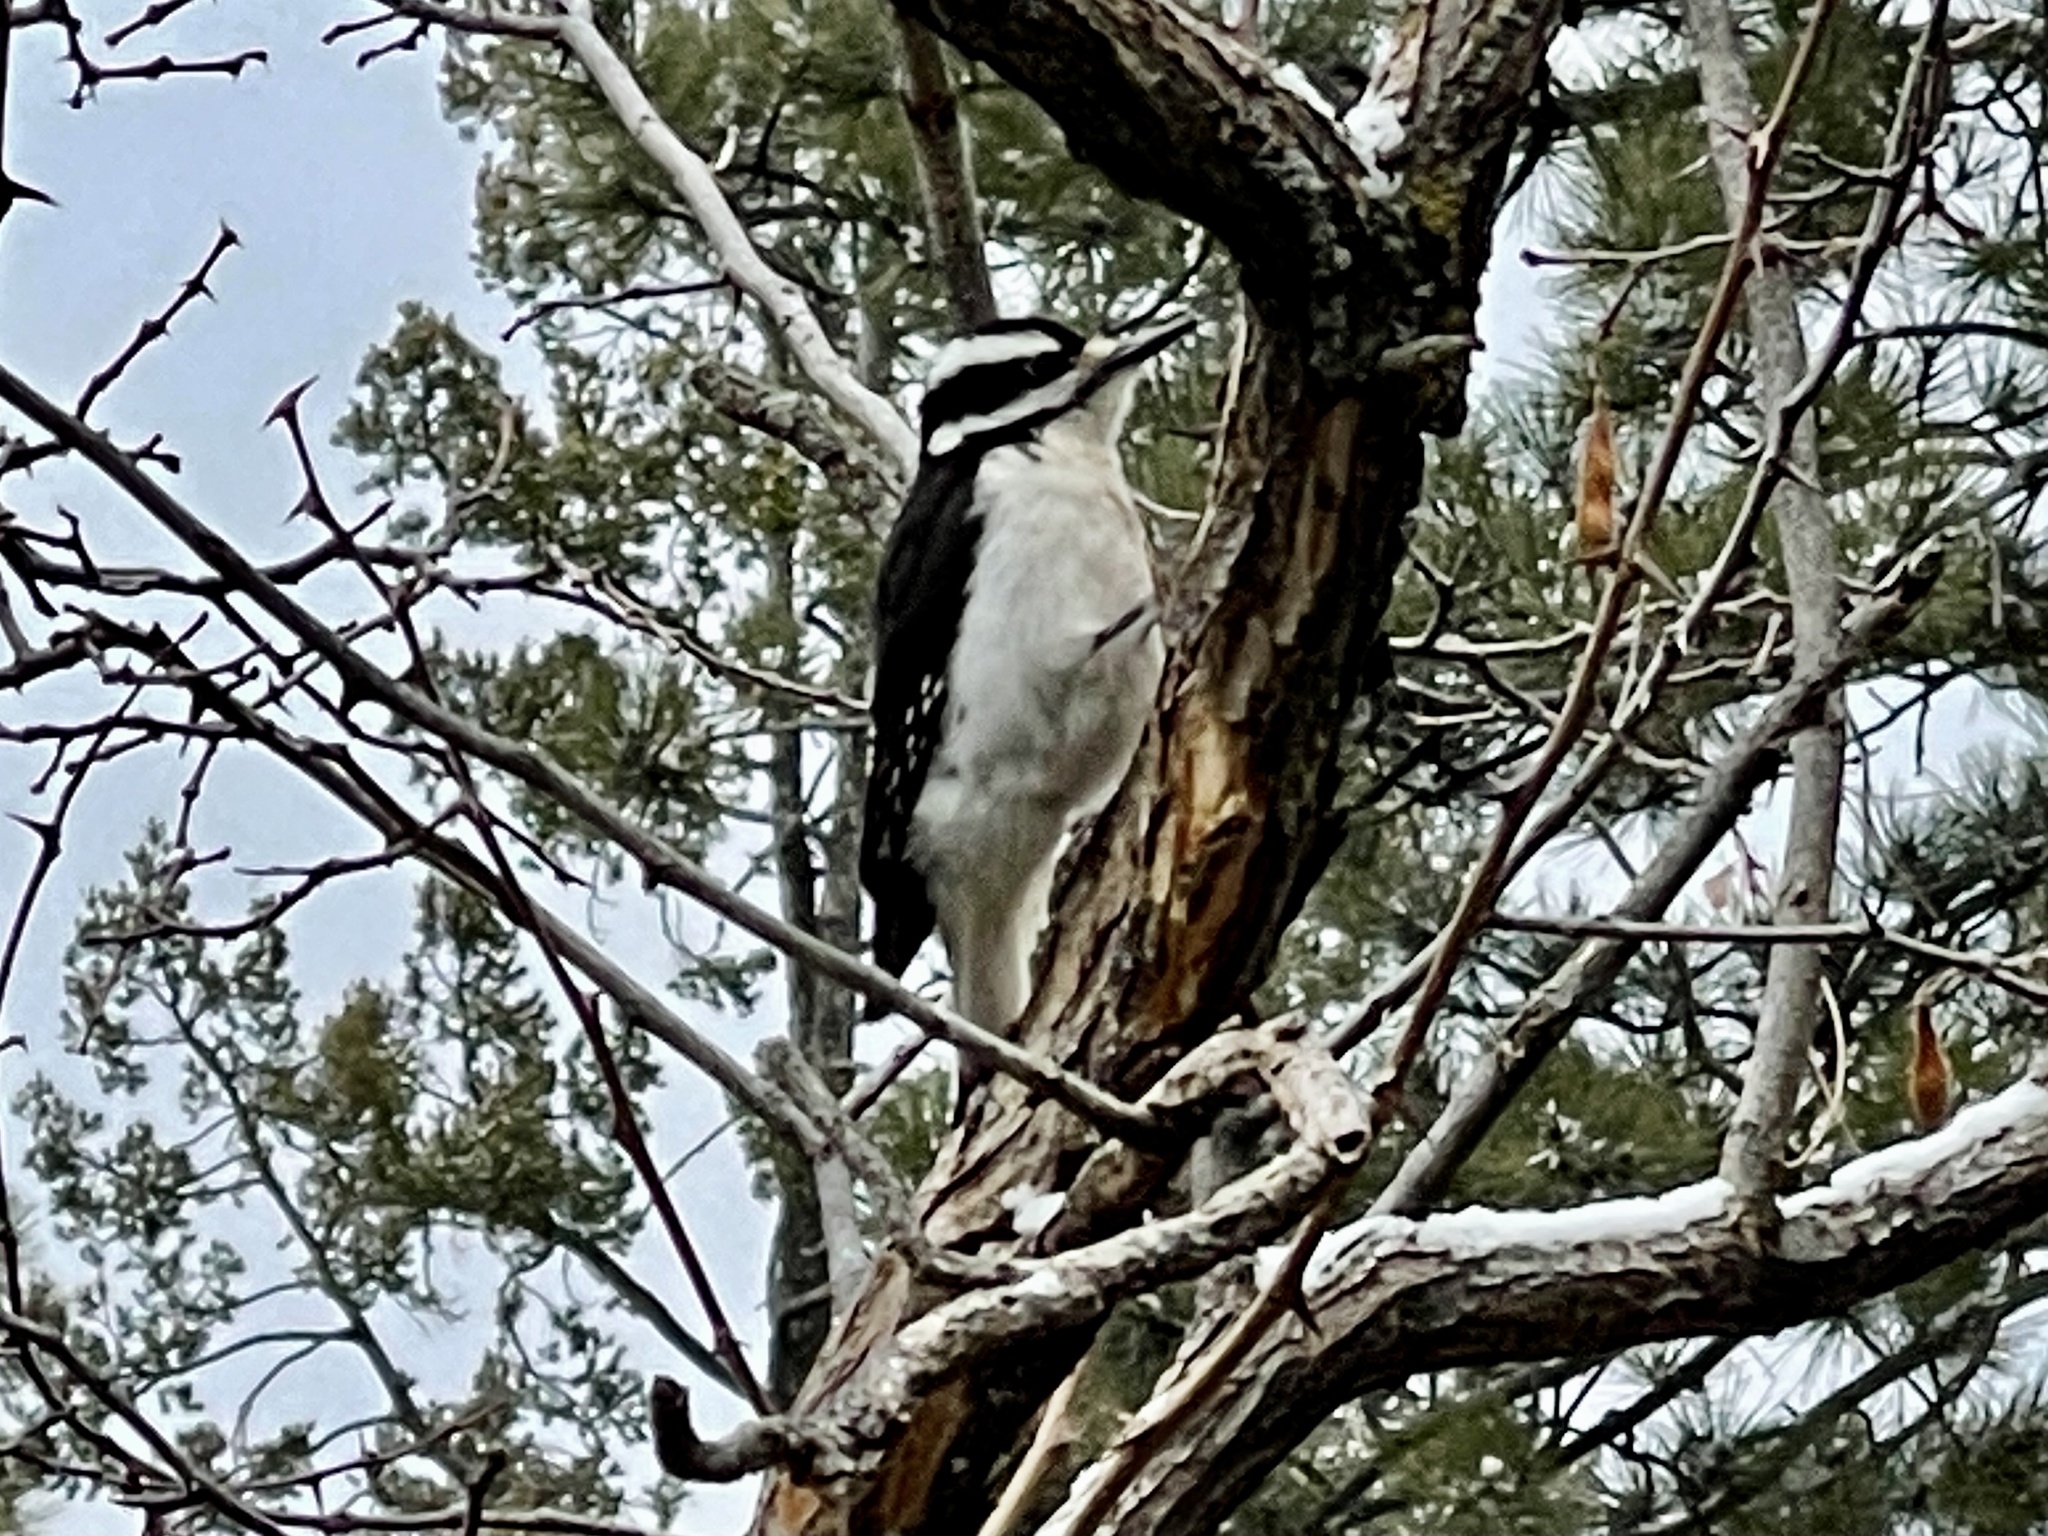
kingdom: Animalia
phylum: Chordata
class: Aves
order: Piciformes
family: Picidae
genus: Leuconotopicus
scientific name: Leuconotopicus villosus
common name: Hairy woodpecker
